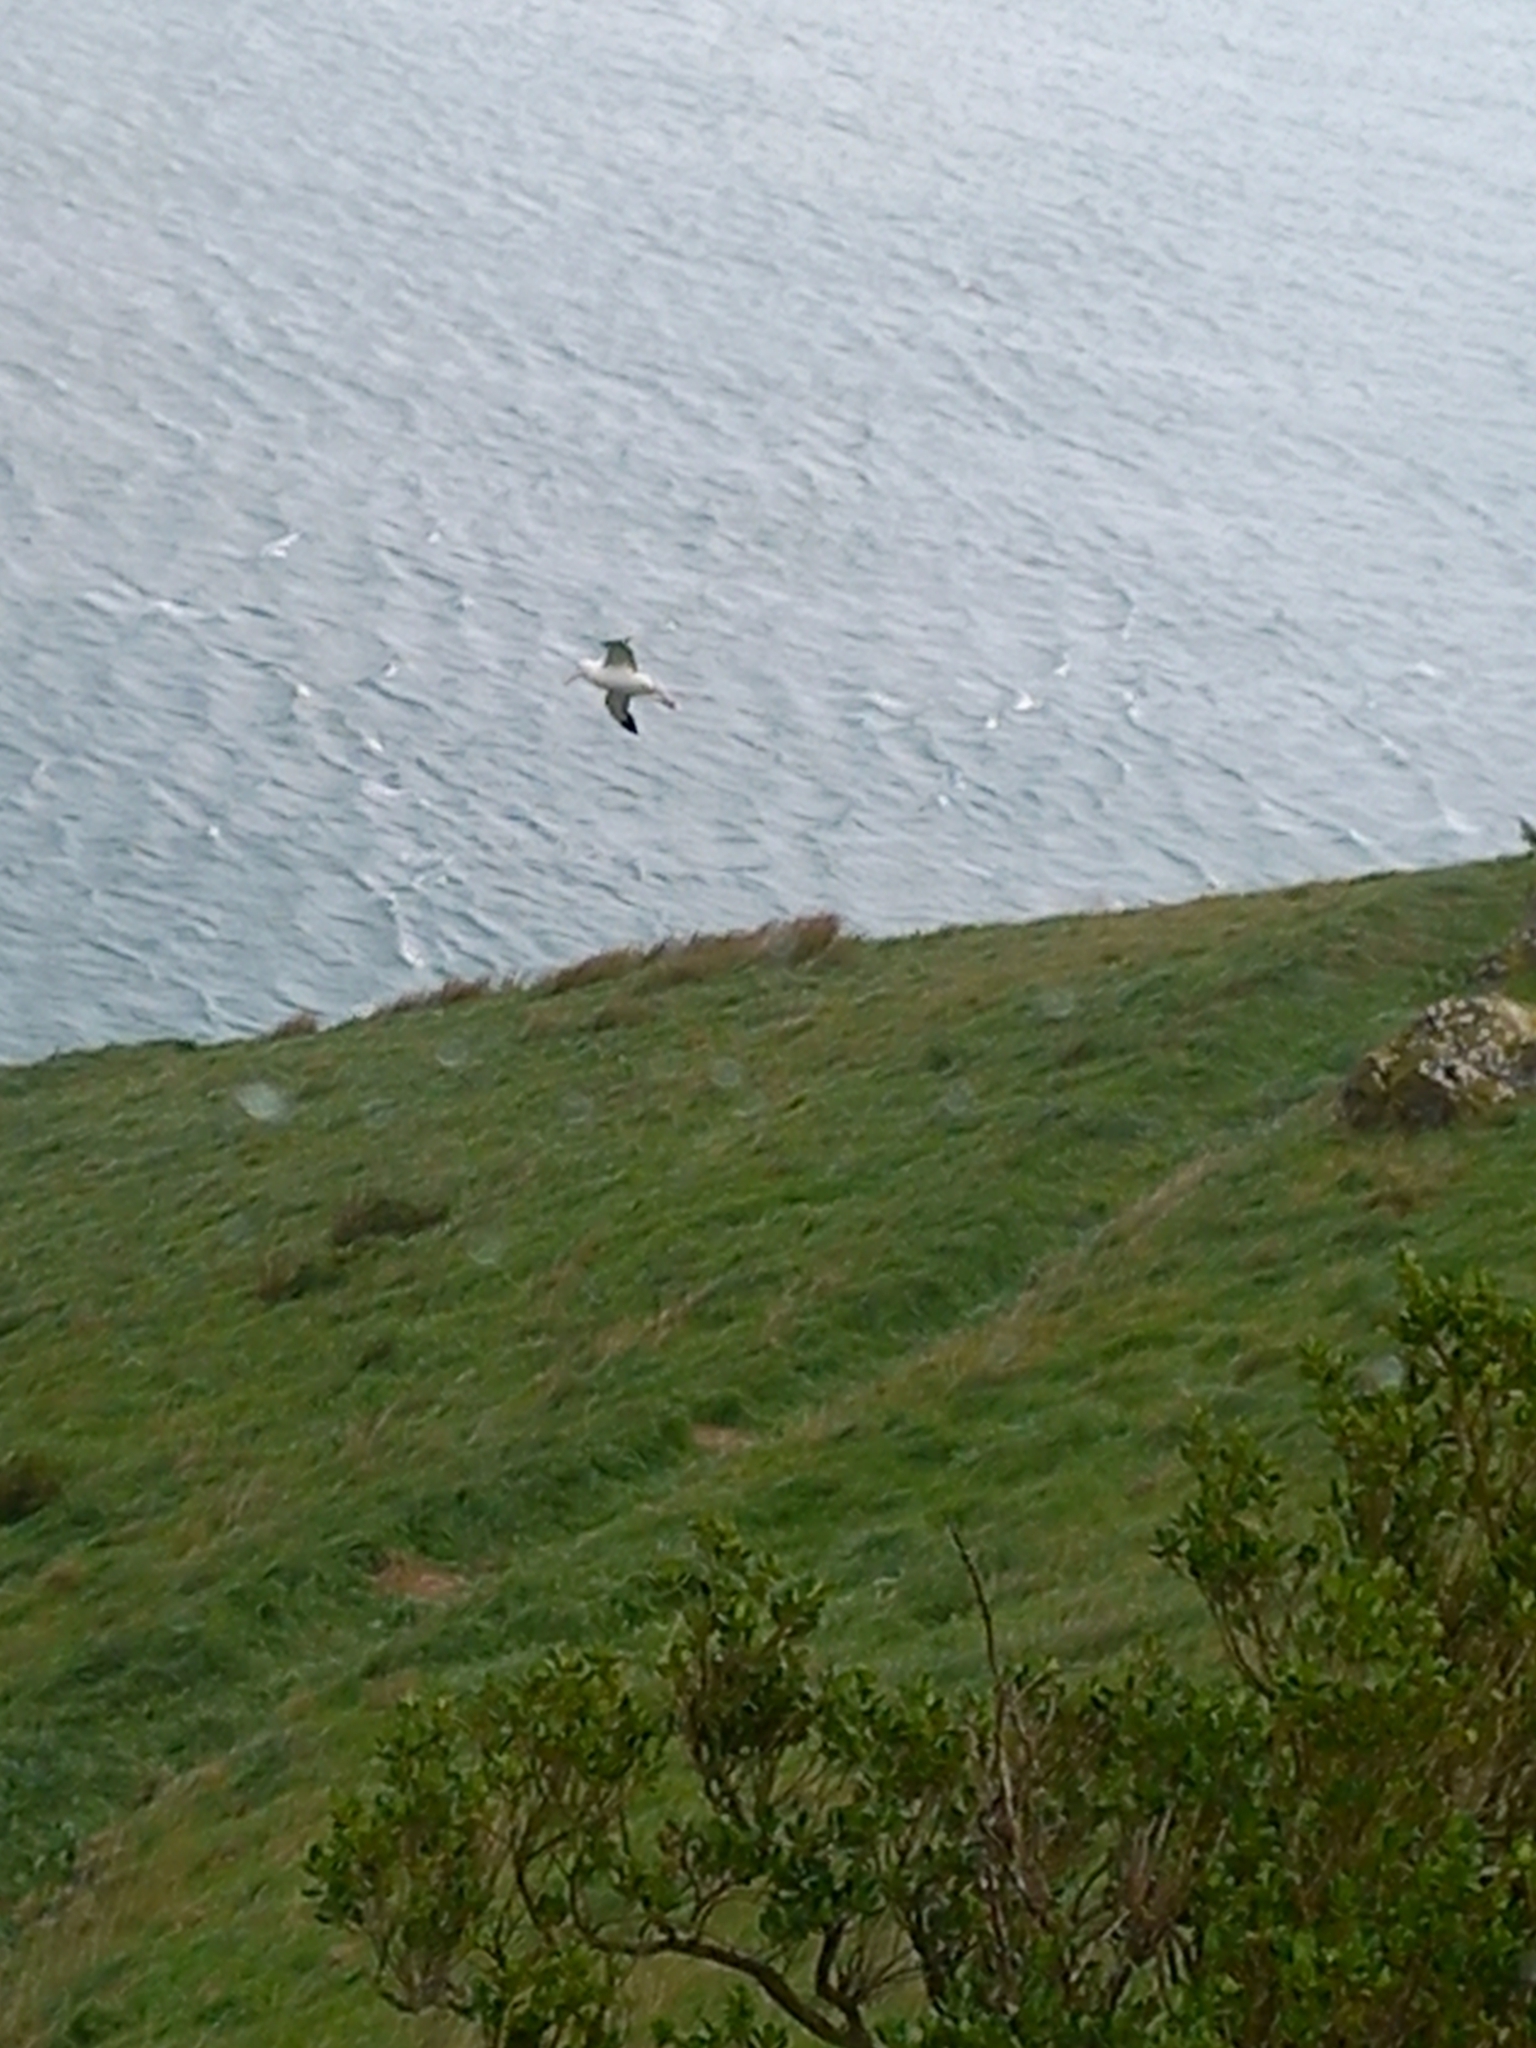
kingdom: Animalia
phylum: Chordata
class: Aves
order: Procellariiformes
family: Diomedeidae
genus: Diomedea
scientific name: Diomedea sanfordi
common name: Northern royal albatross
